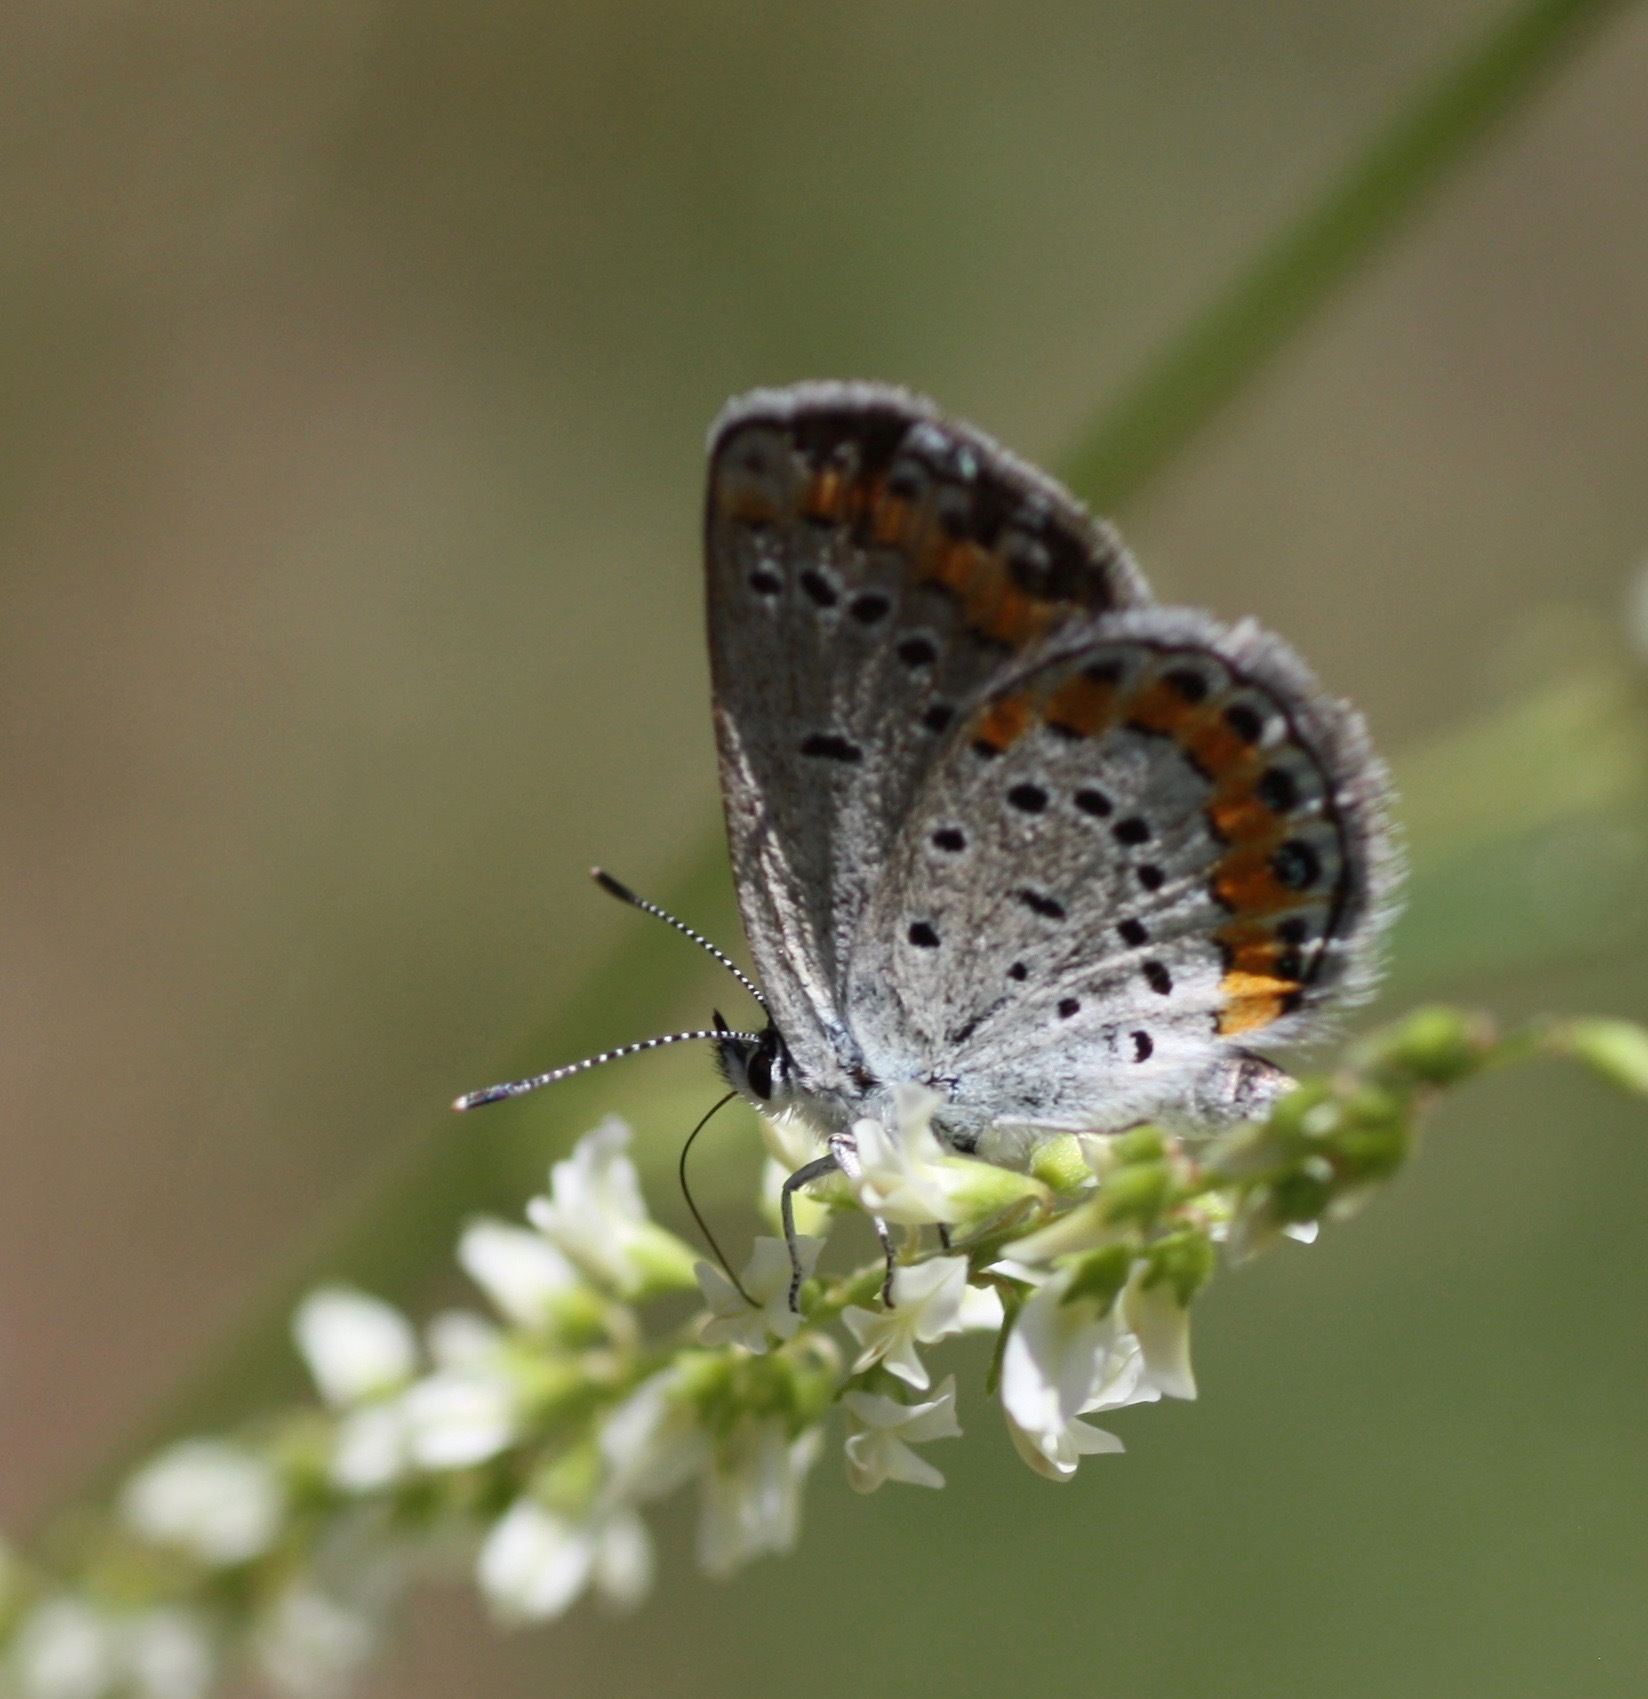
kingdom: Animalia
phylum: Arthropoda
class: Insecta
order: Lepidoptera
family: Lycaenidae
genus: Lycaeides
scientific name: Lycaeides melissa
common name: Melissa blue
